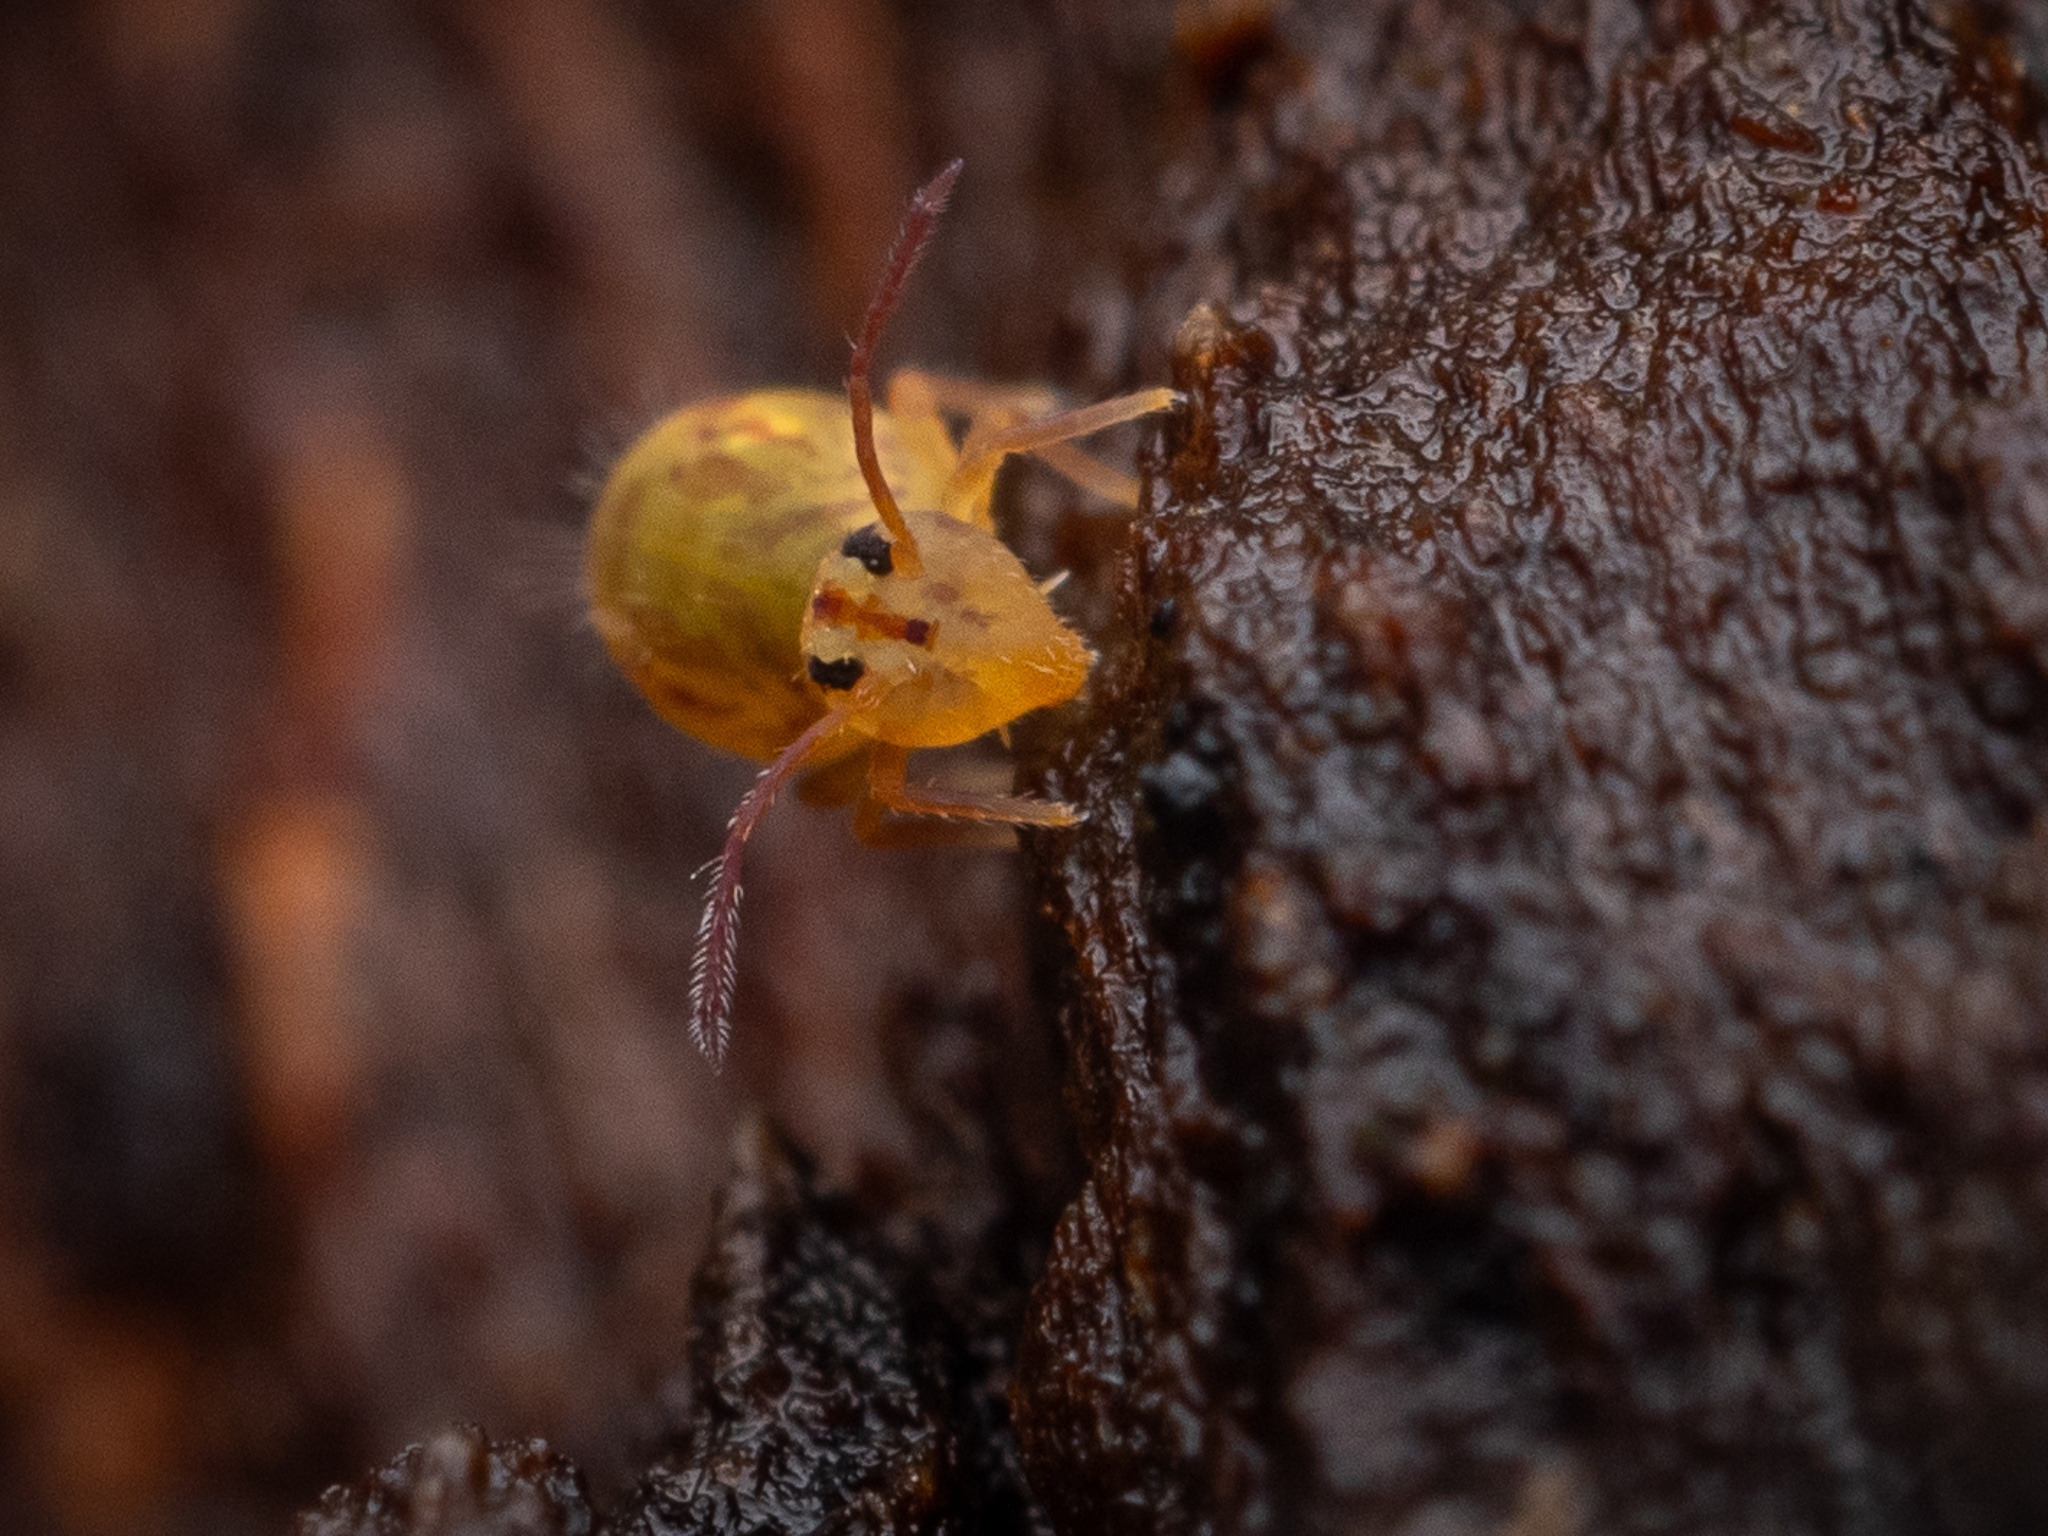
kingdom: Animalia
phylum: Arthropoda
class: Collembola
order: Symphypleona
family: Dicyrtomidae
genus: Dicyrtomina
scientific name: Dicyrtomina ornata
